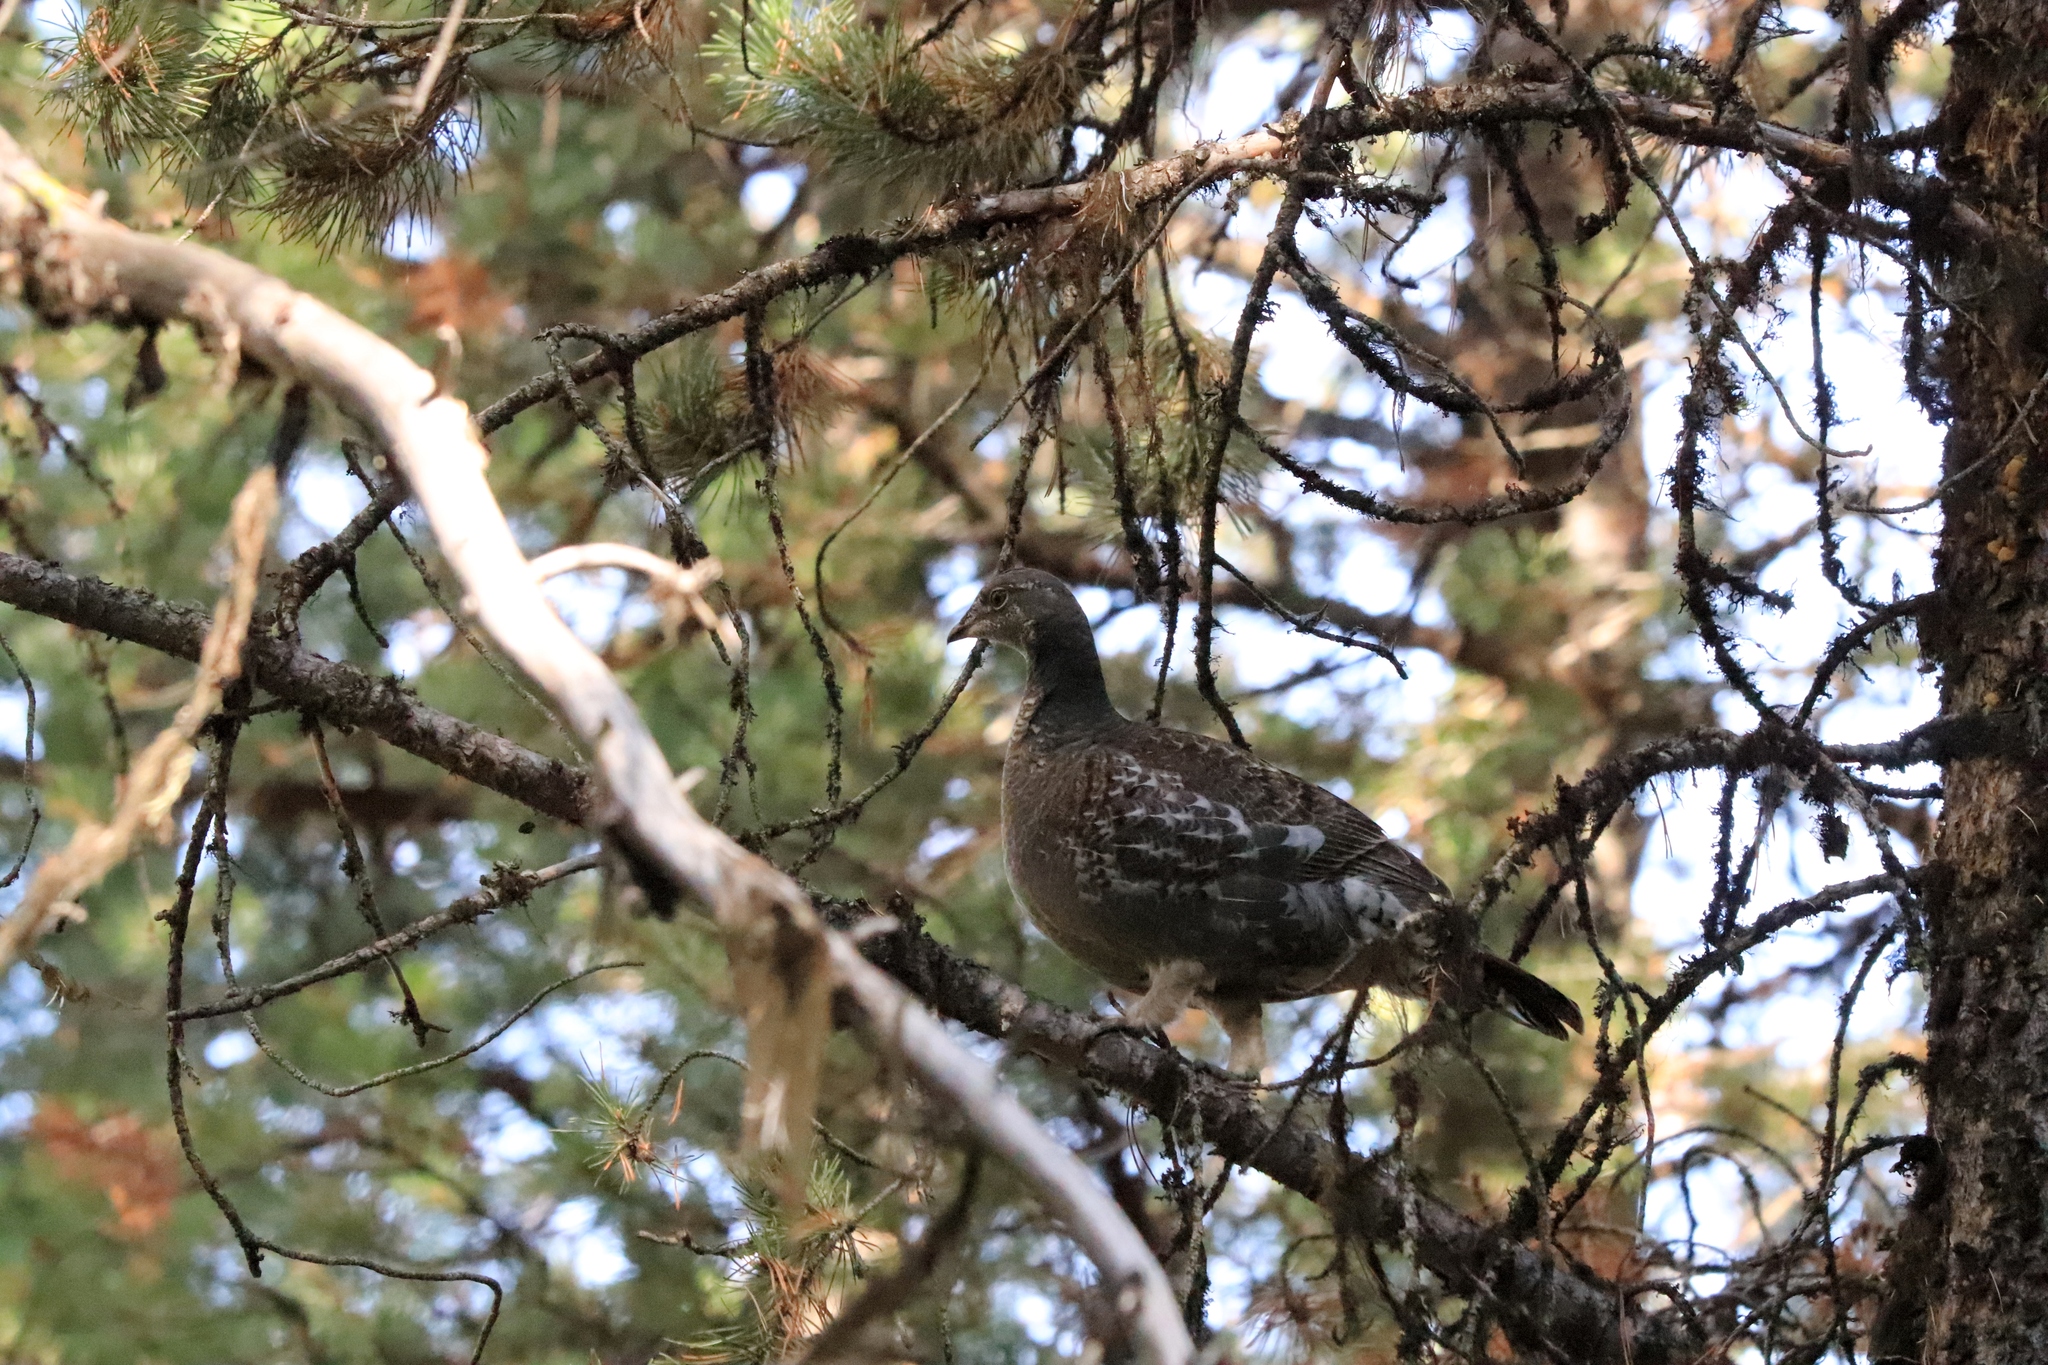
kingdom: Animalia
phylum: Chordata
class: Aves
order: Galliformes
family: Phasianidae
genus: Dendragapus
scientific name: Dendragapus obscurus
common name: Dusky grouse
